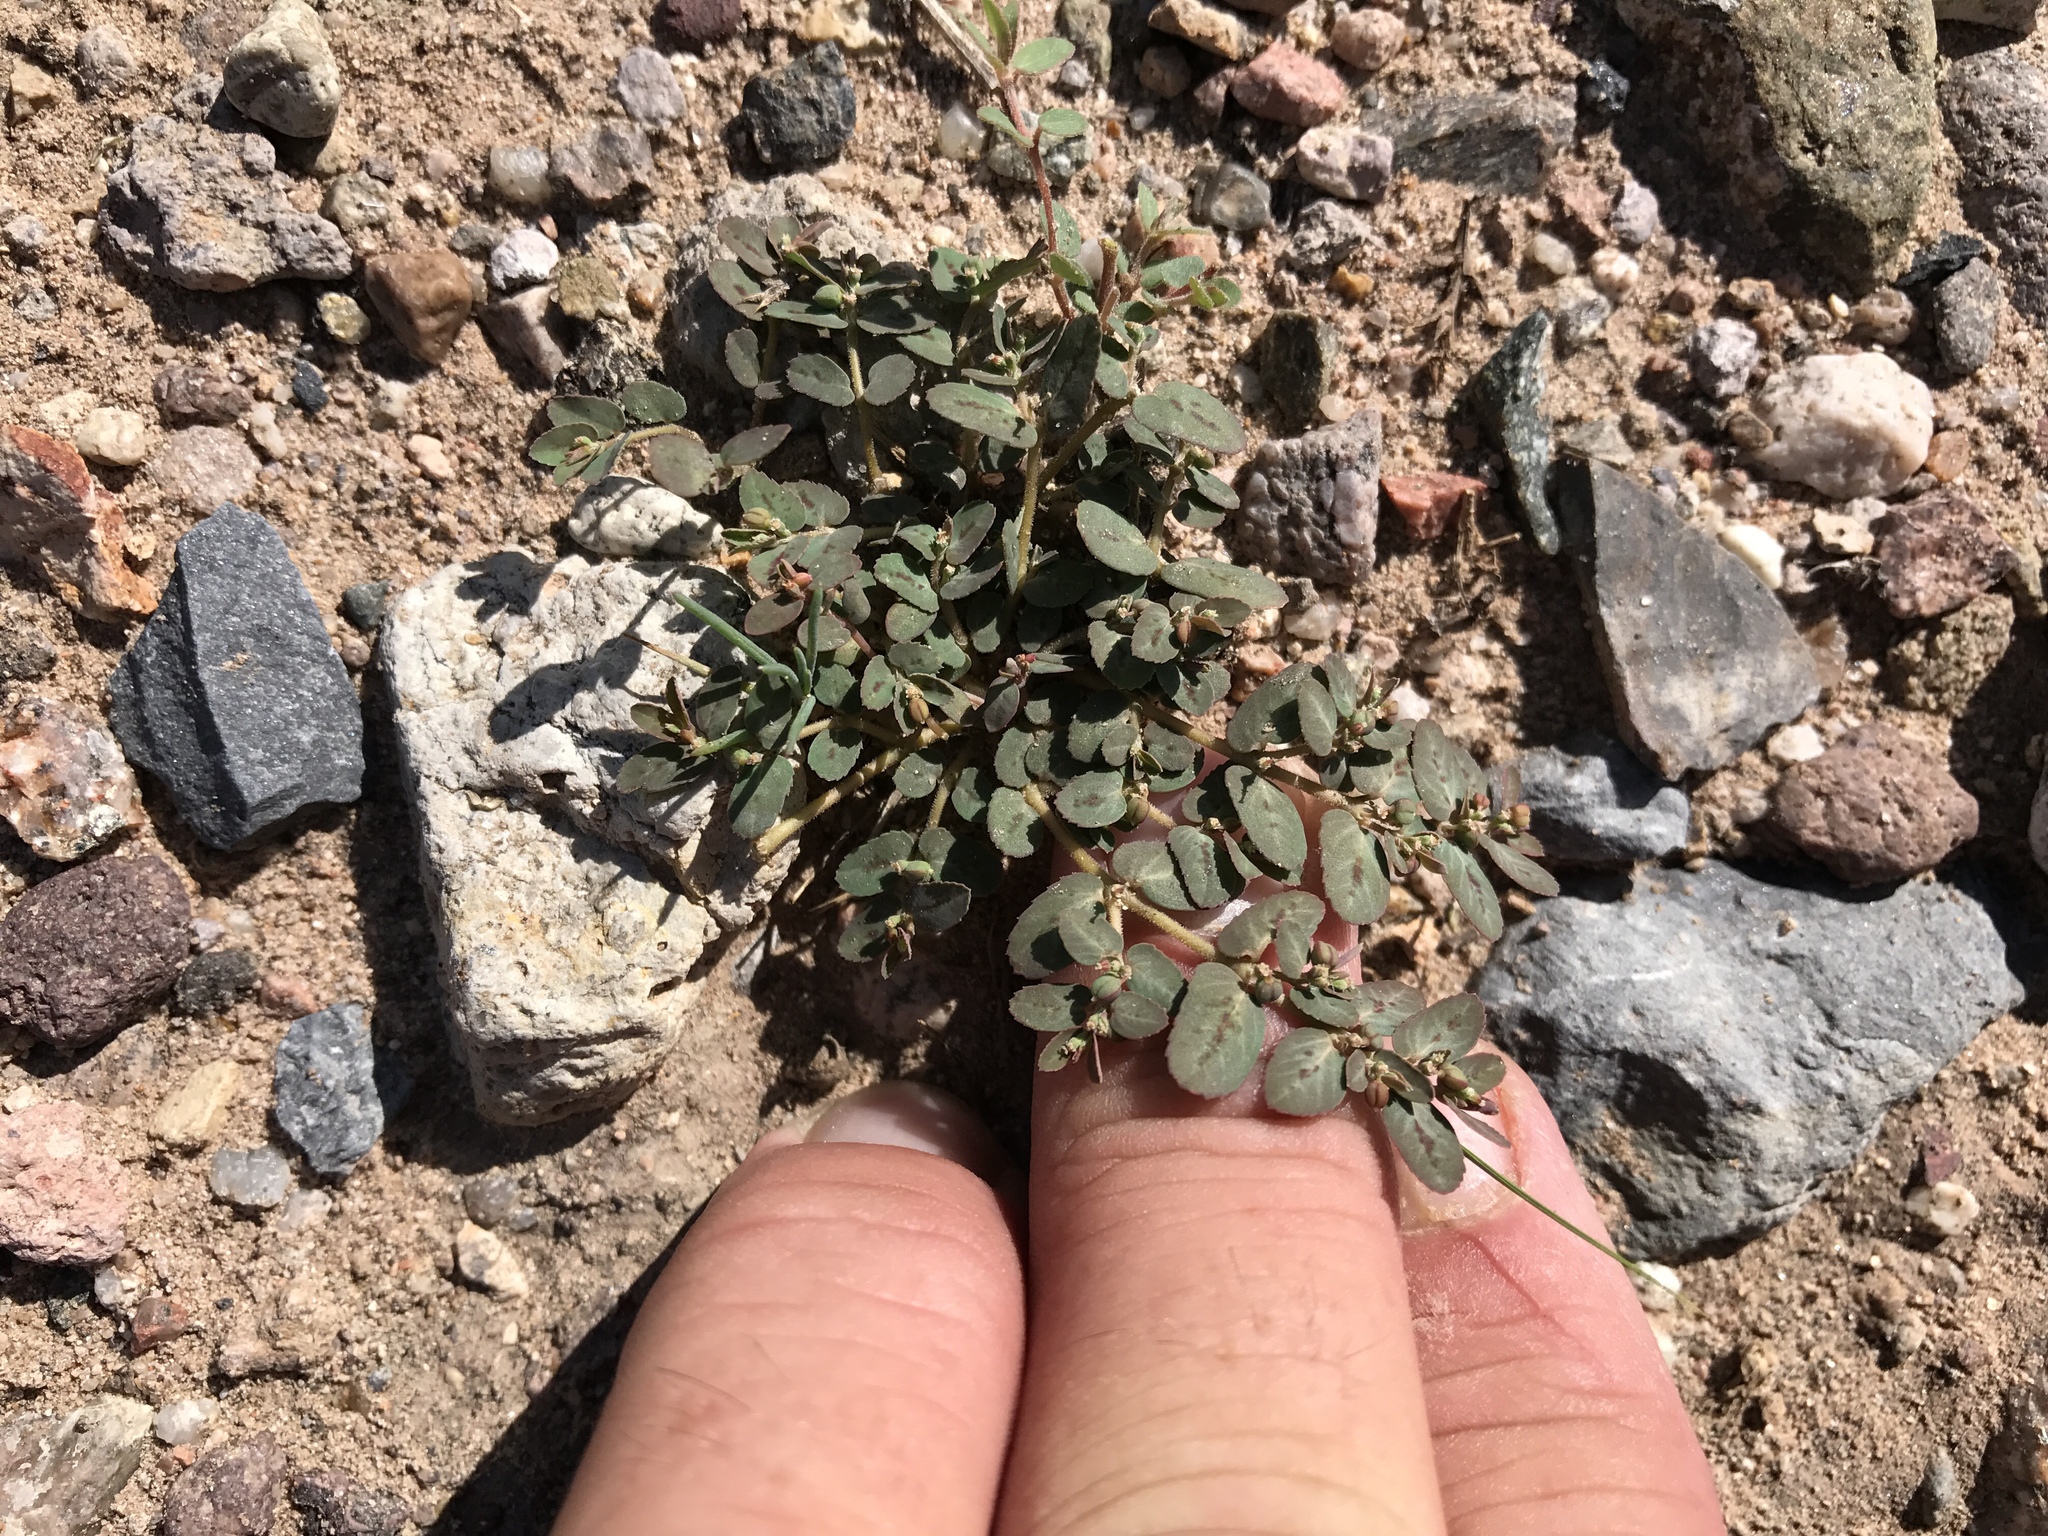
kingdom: Plantae
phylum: Tracheophyta
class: Magnoliopsida
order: Malpighiales
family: Euphorbiaceae
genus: Euphorbia
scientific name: Euphorbia abramsiana
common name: Abram's spurge
